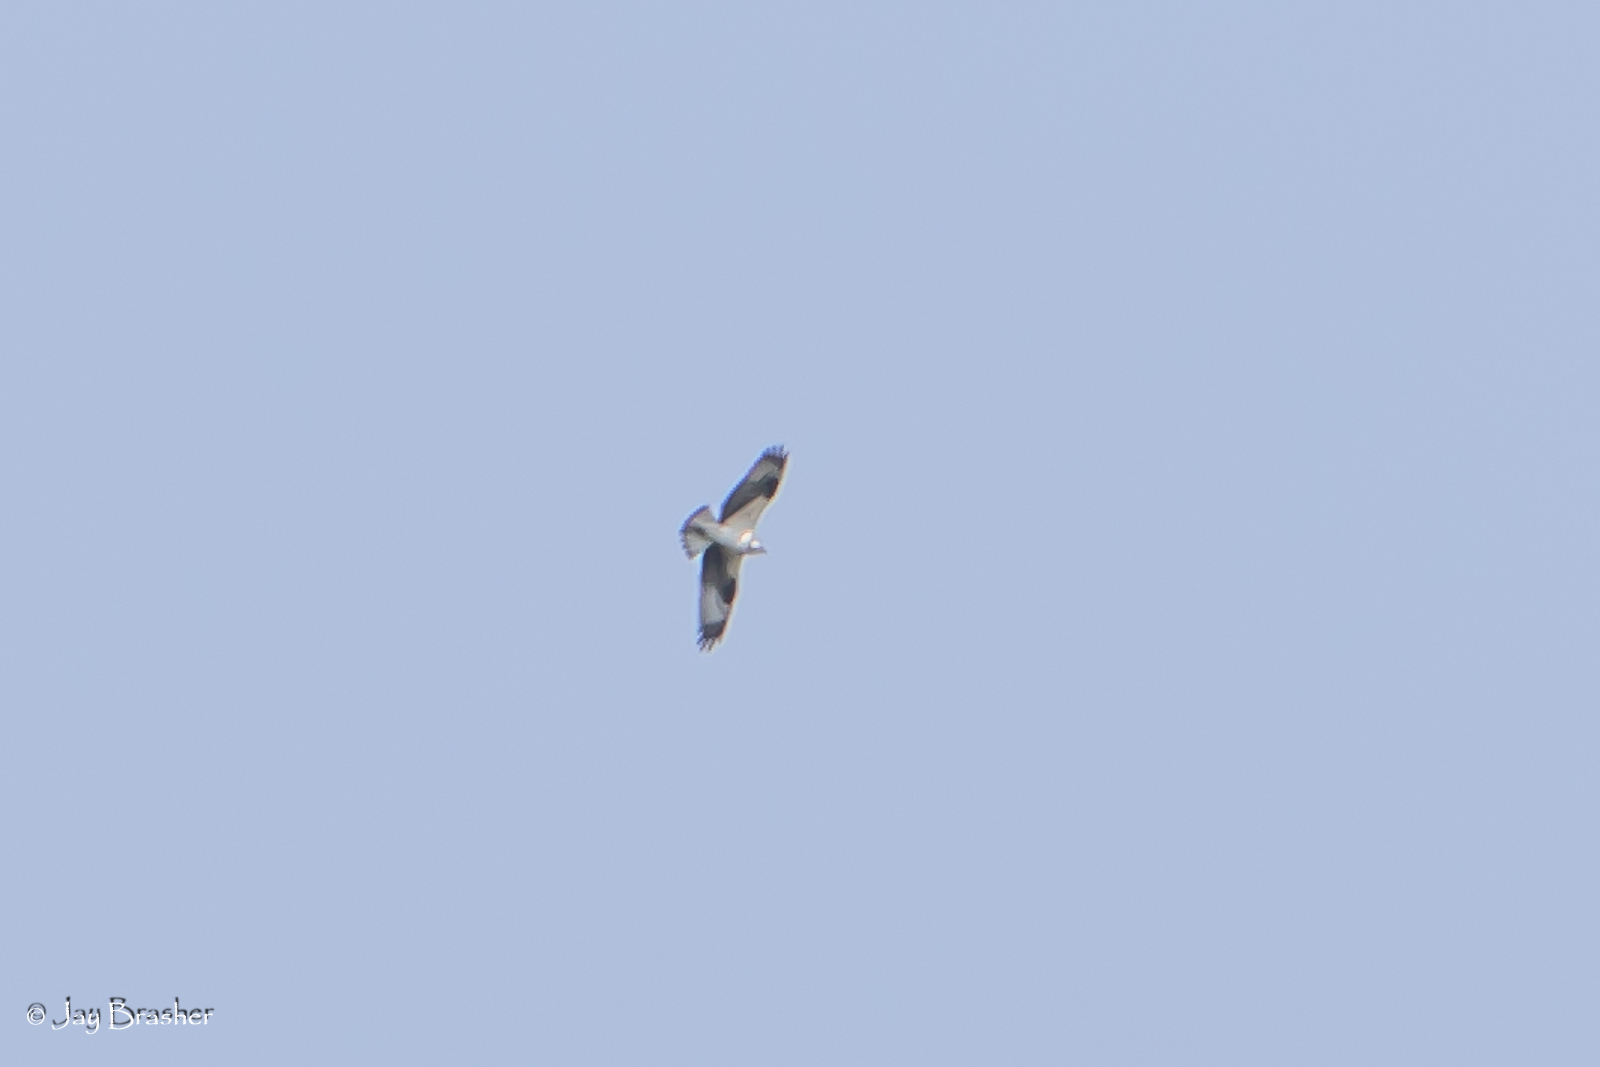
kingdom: Animalia
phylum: Chordata
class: Aves
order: Accipitriformes
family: Pandionidae
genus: Pandion
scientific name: Pandion haliaetus
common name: Osprey
